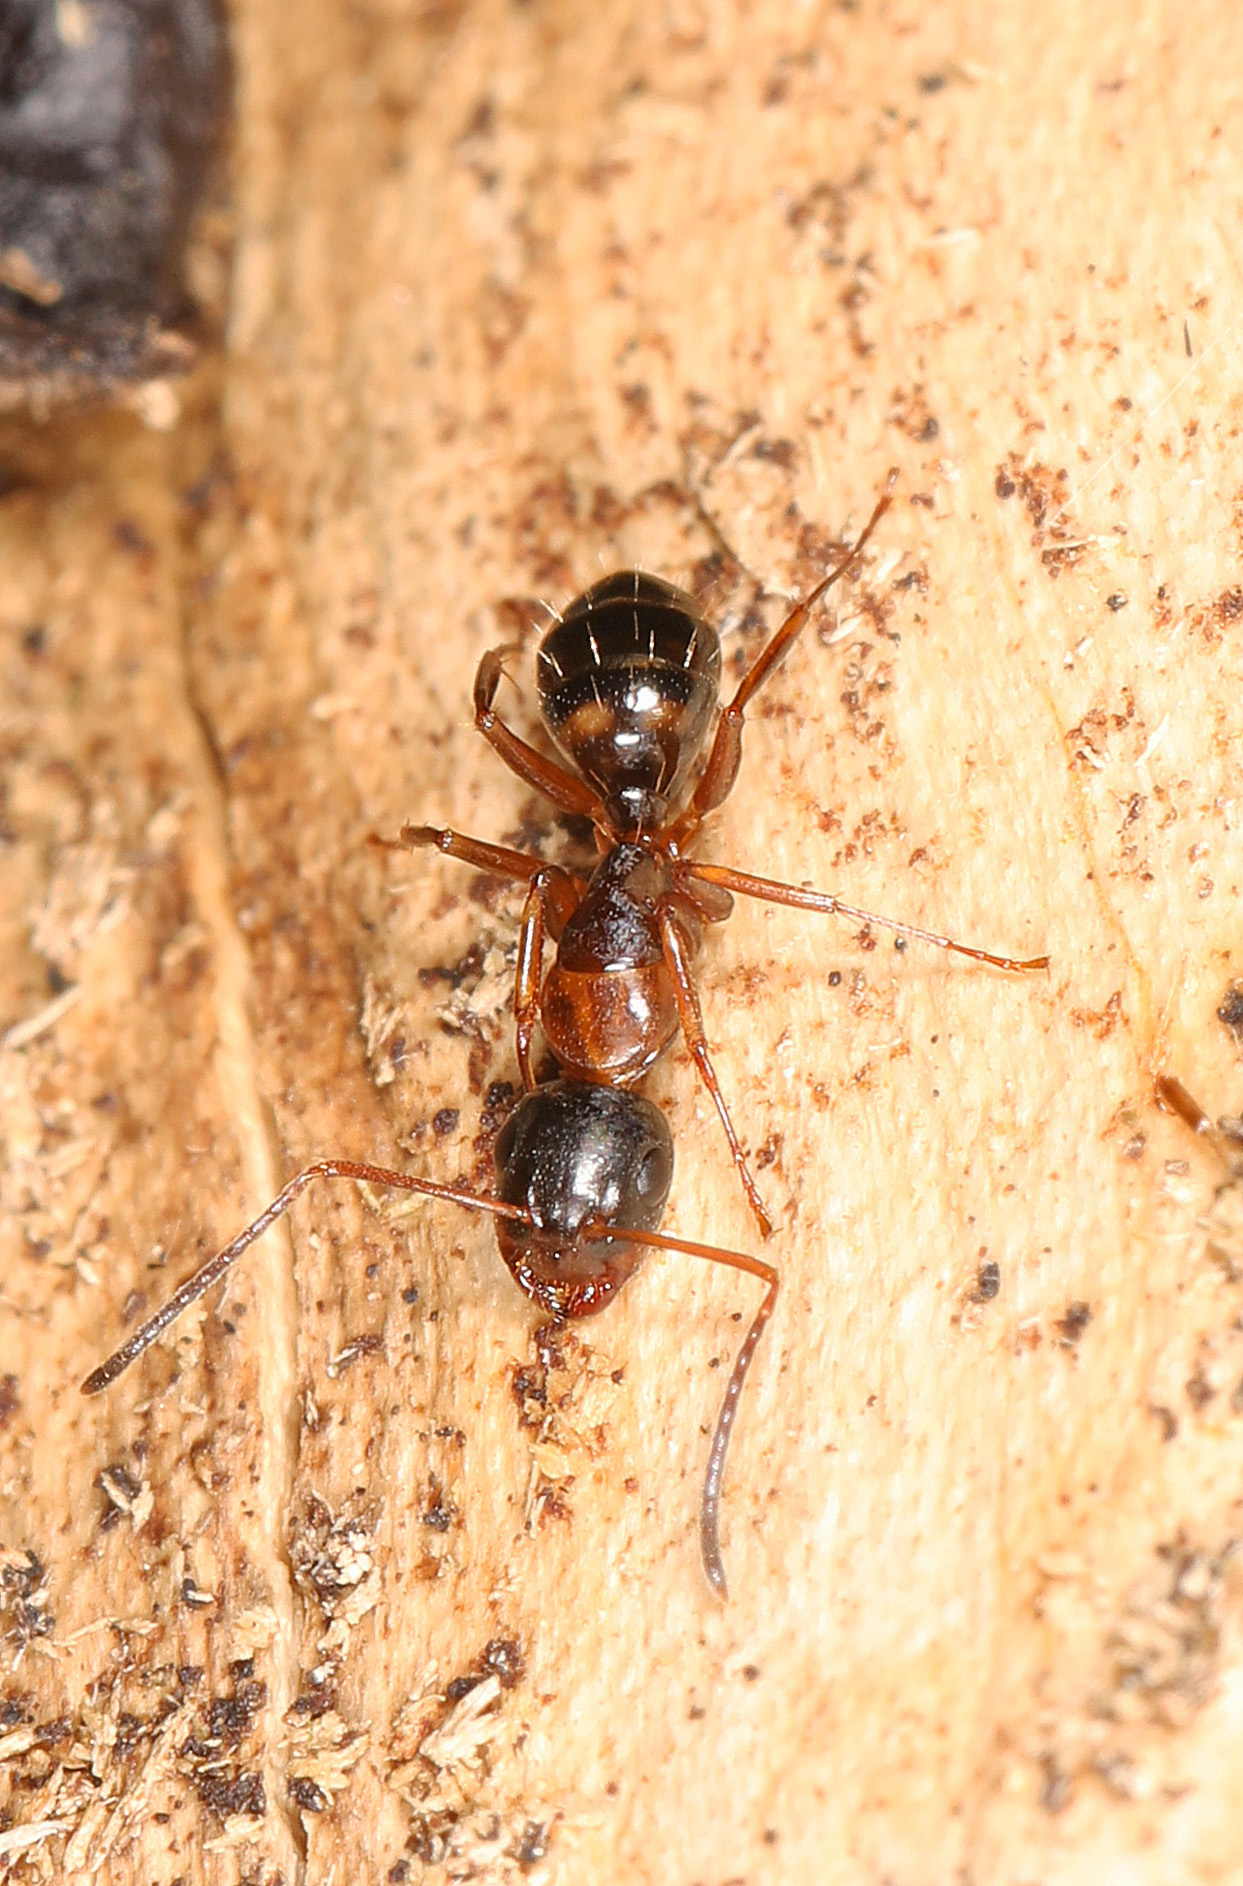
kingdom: Animalia
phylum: Arthropoda
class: Insecta
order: Hymenoptera
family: Formicidae
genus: Camponotus
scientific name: Camponotus nearcticus
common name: Smaller carpenter ant
